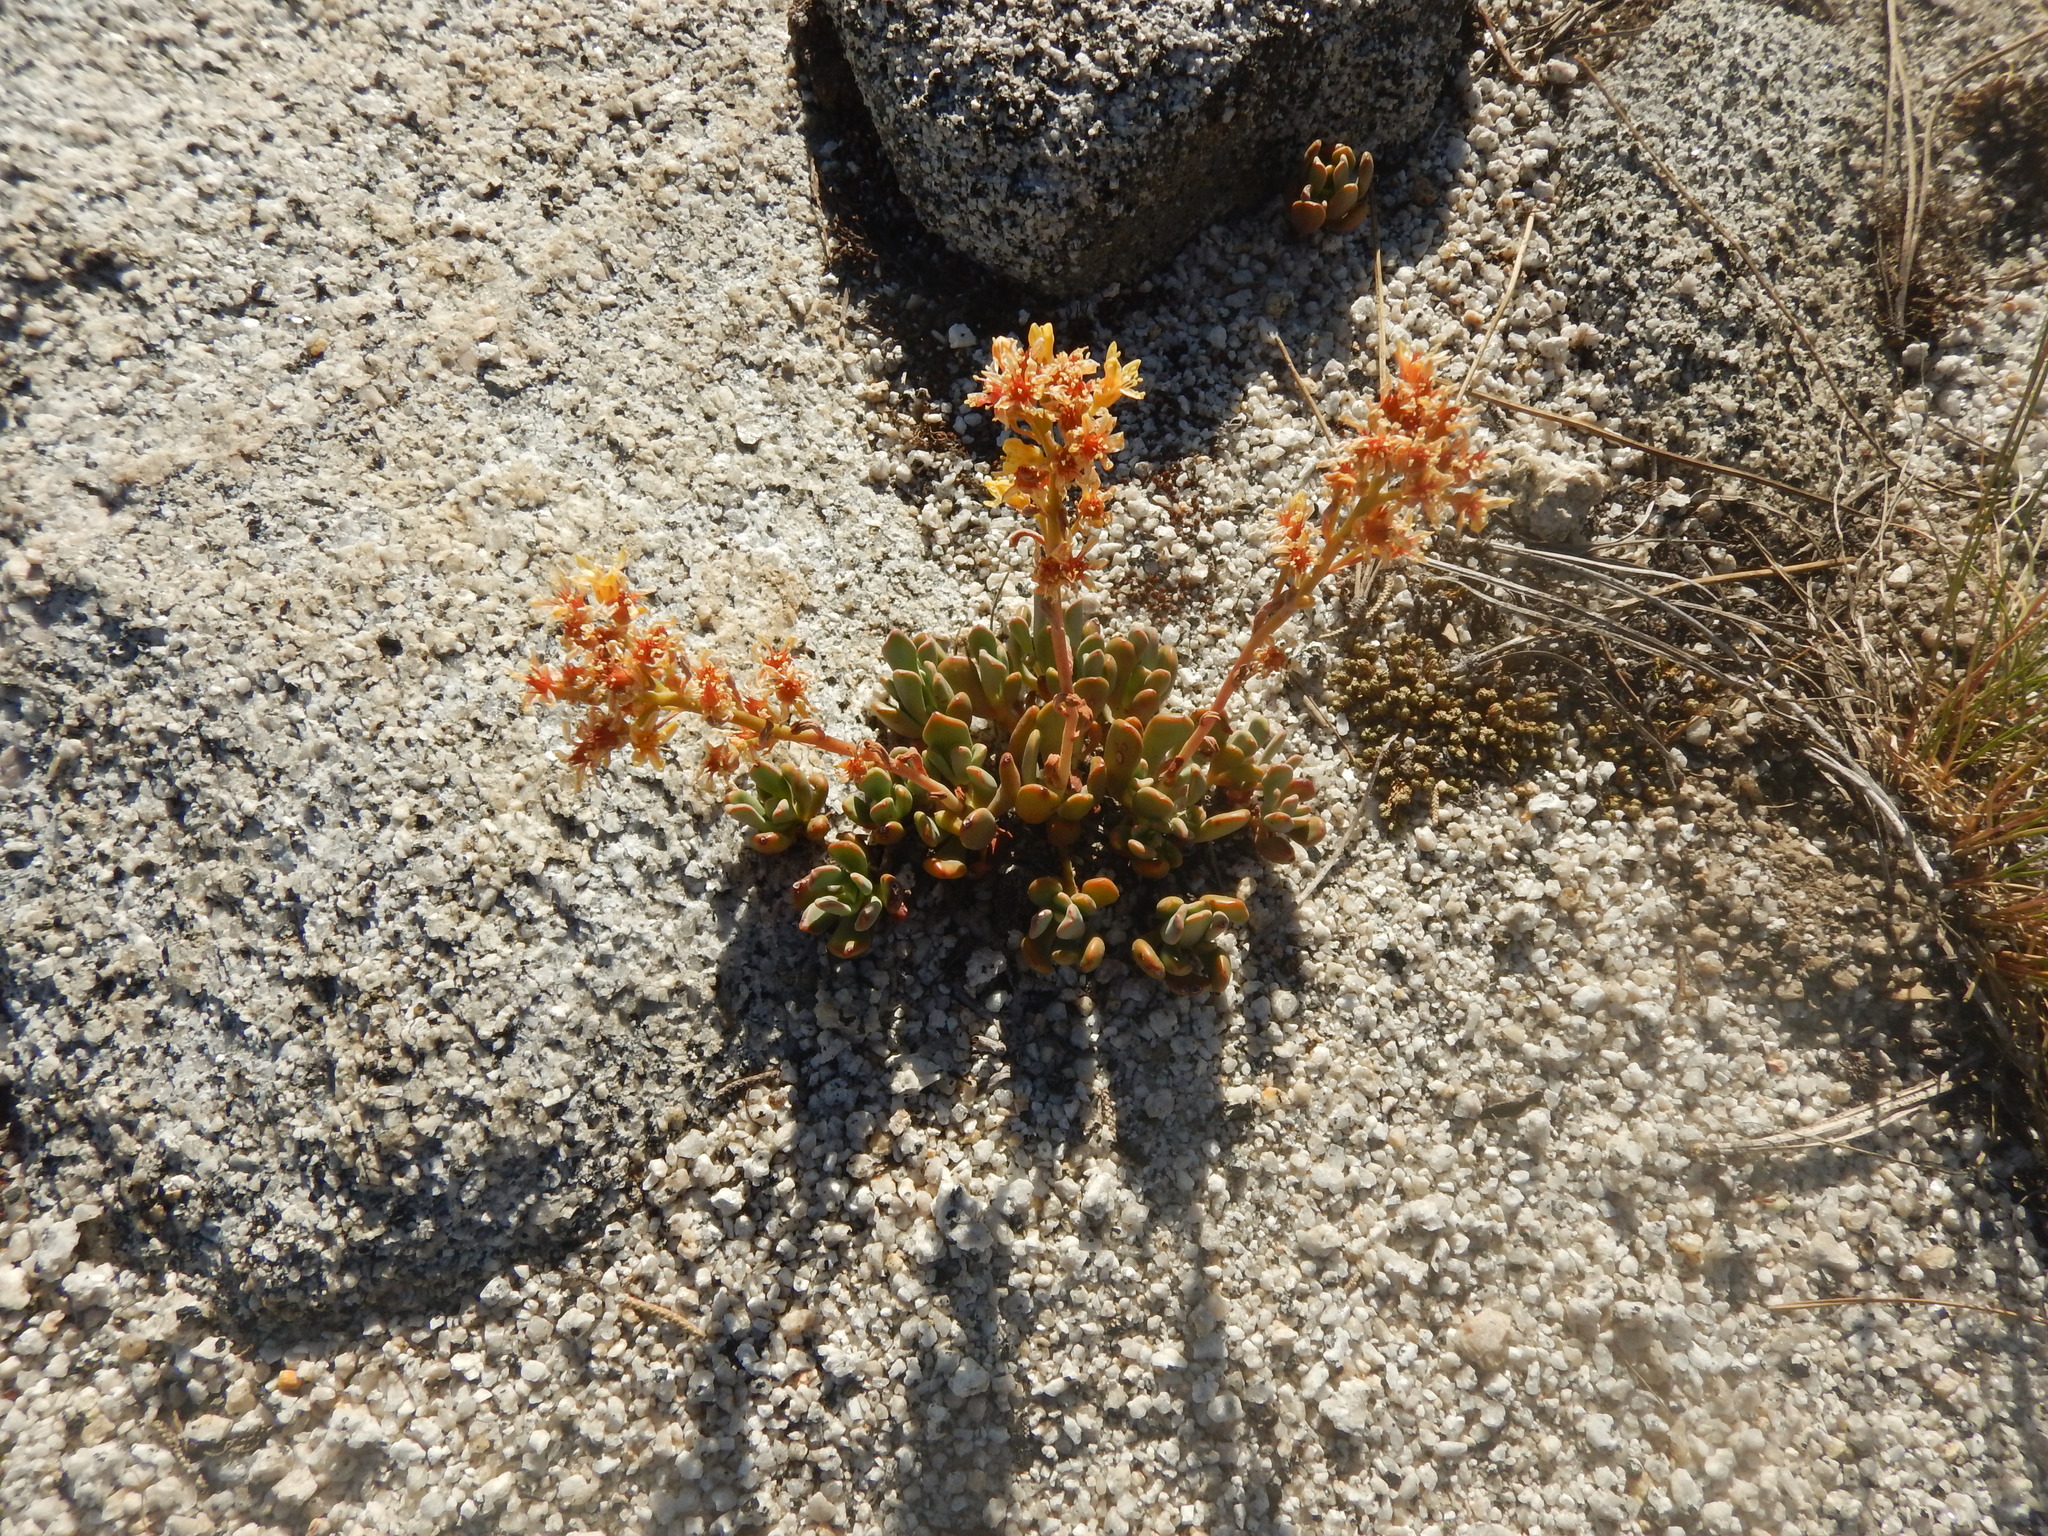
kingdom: Plantae
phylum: Tracheophyta
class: Magnoliopsida
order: Saxifragales
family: Crassulaceae
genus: Sedum
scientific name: Sedum obtusatum
